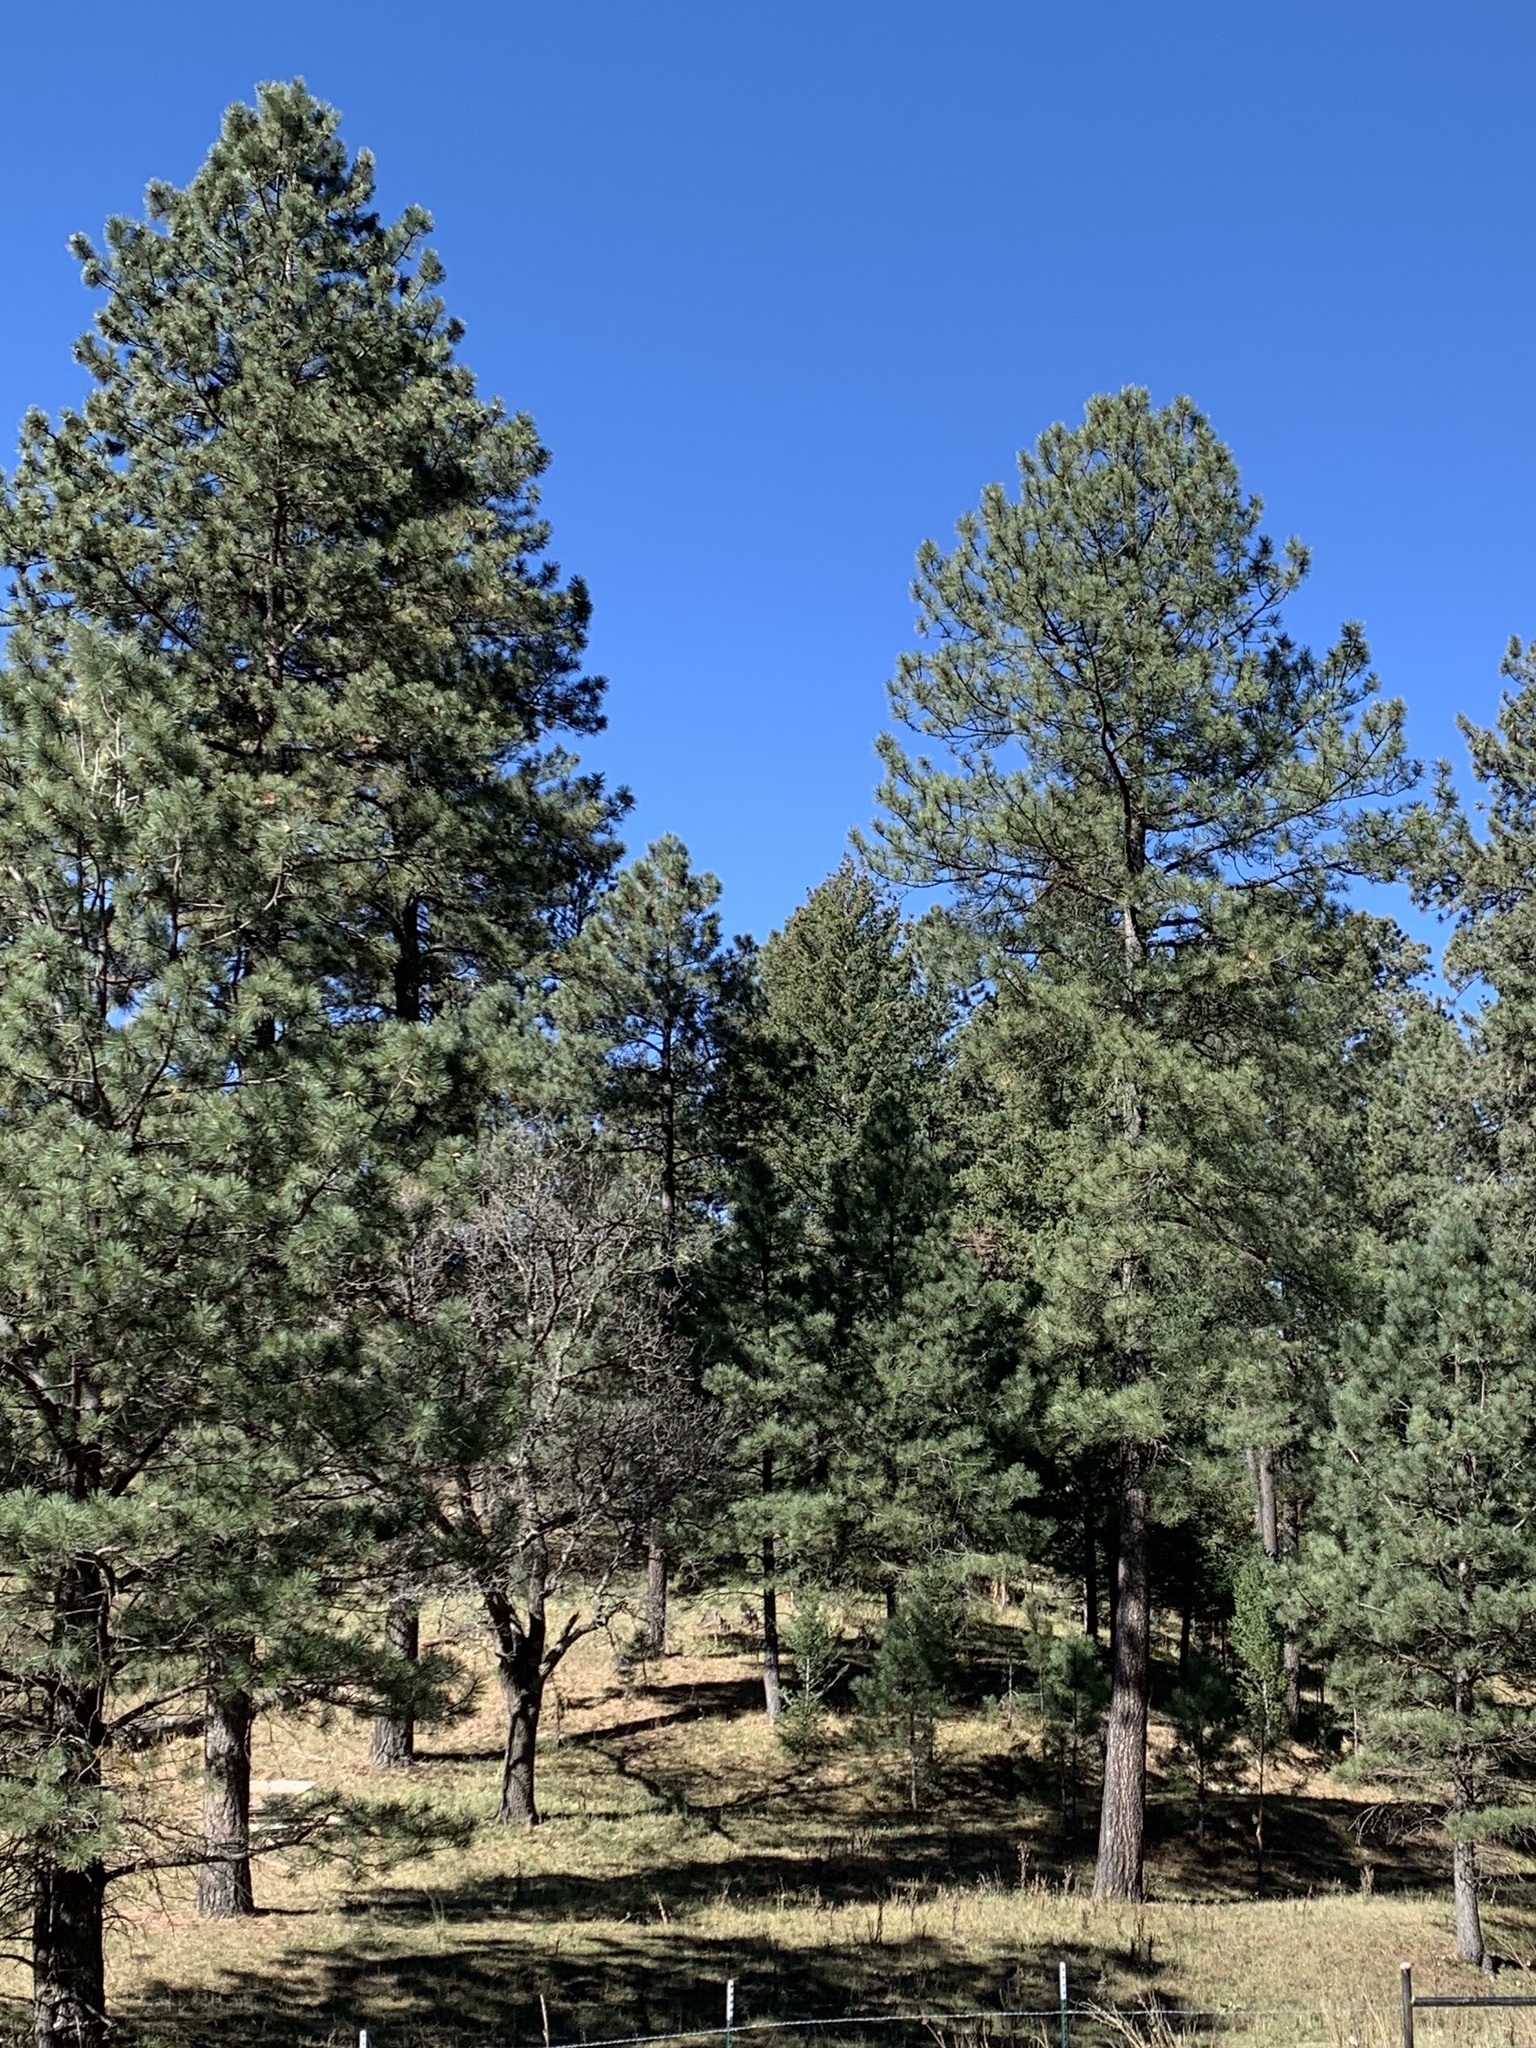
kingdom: Plantae
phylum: Tracheophyta
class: Pinopsida
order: Pinales
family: Pinaceae
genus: Pinus
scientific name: Pinus ponderosa
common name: Western yellow-pine
